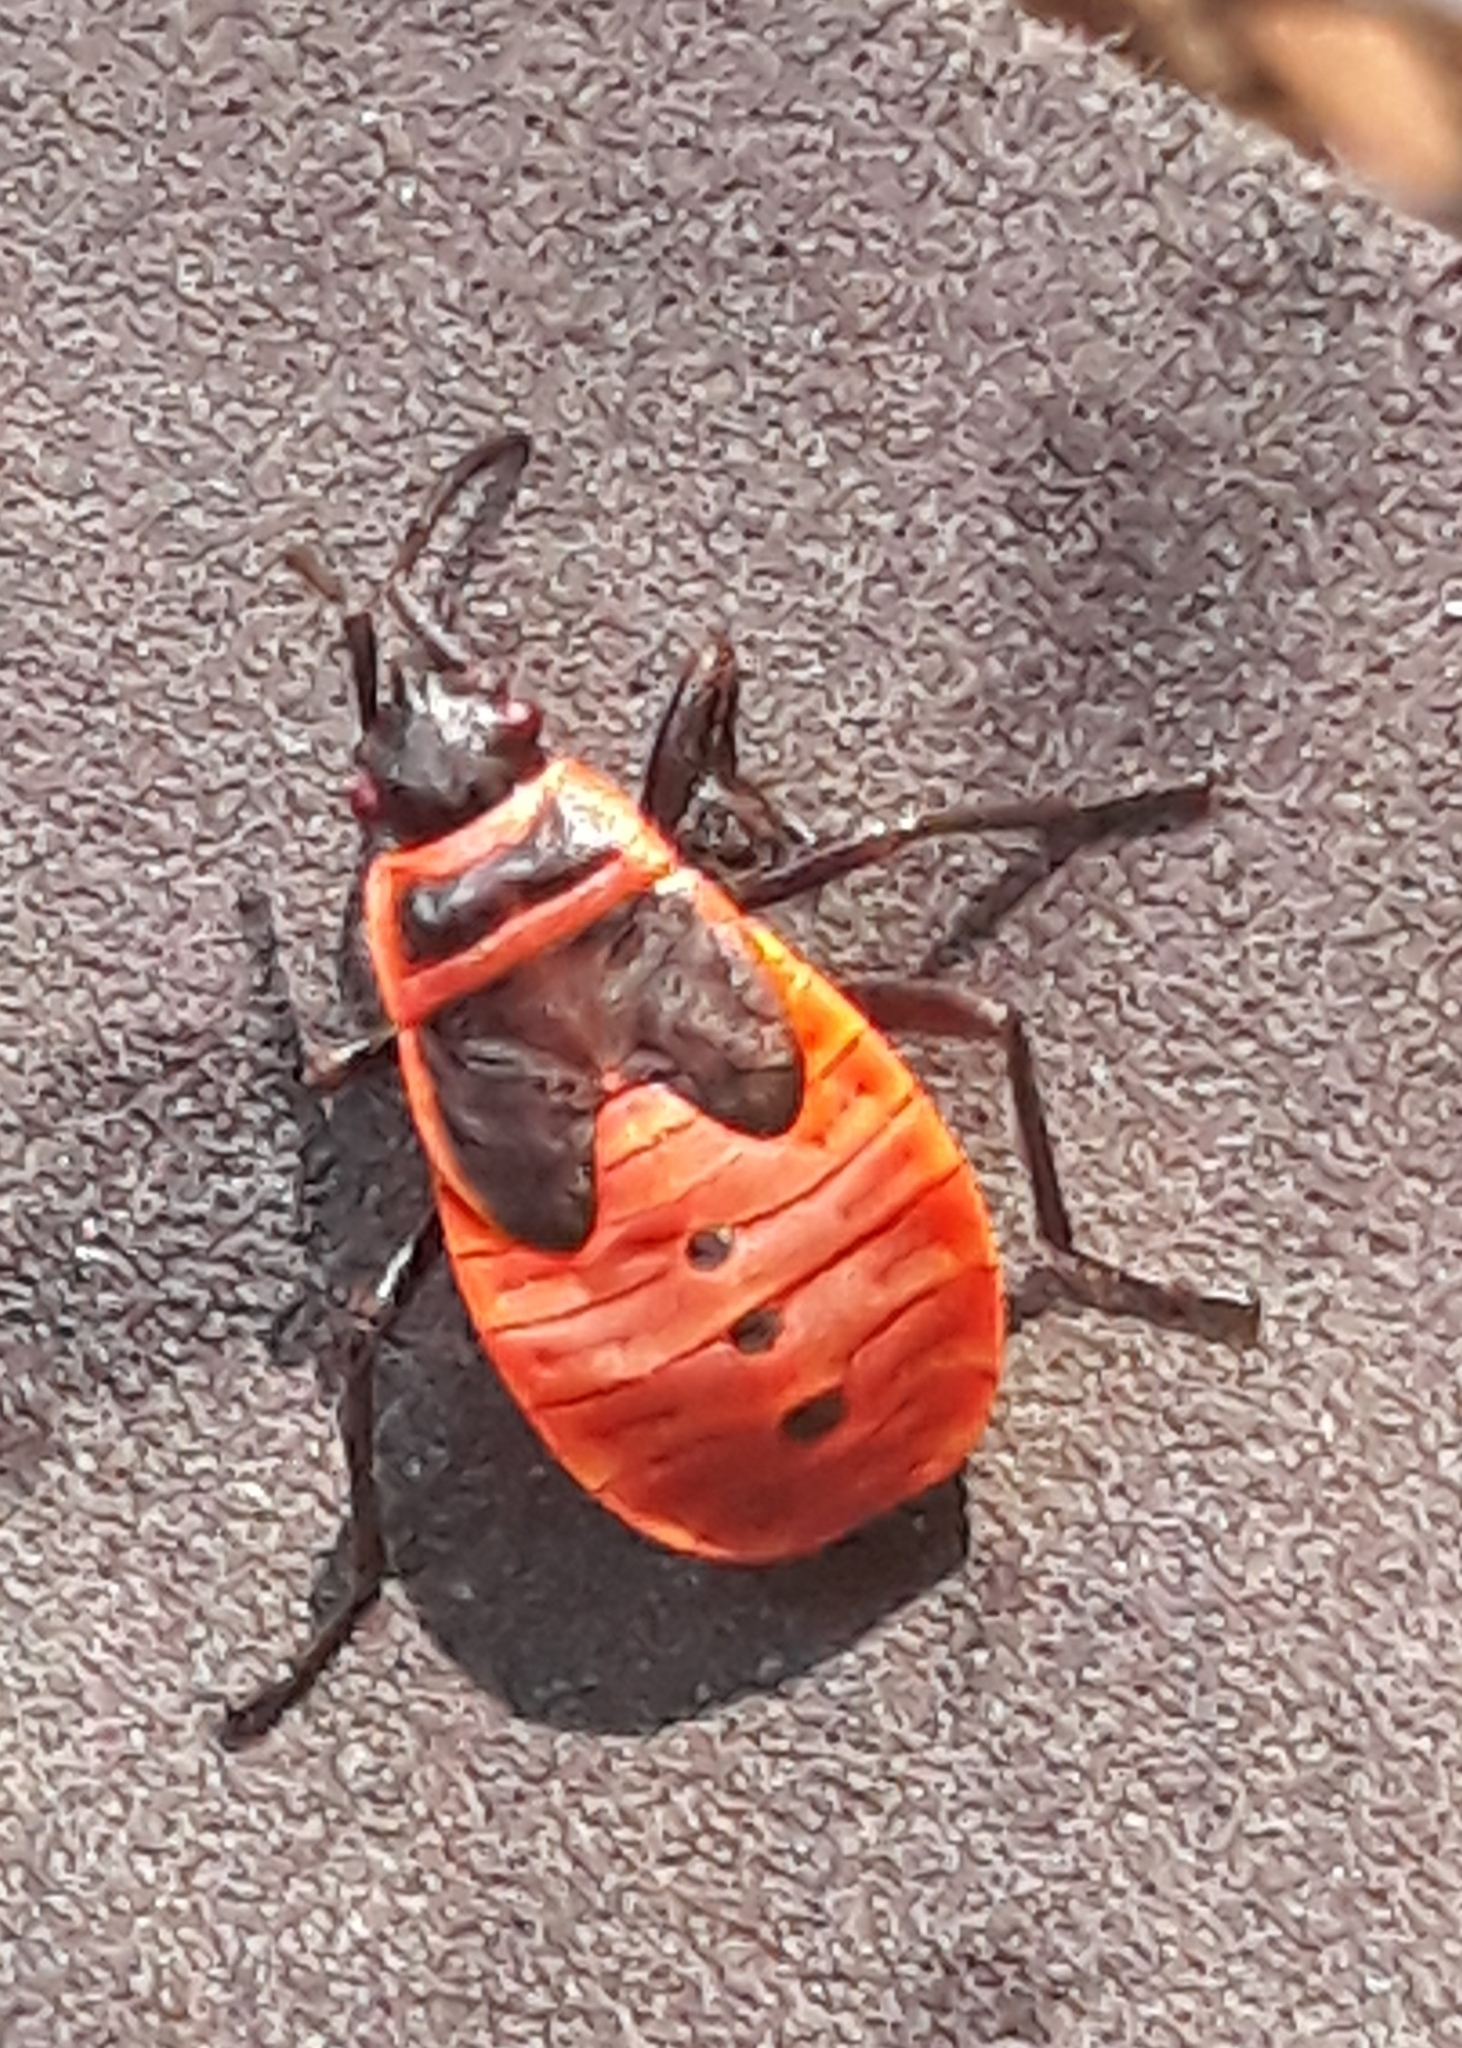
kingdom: Animalia
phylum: Arthropoda
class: Insecta
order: Hemiptera
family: Pyrrhocoridae
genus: Pyrrhocoris
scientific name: Pyrrhocoris apterus
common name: Firebug
